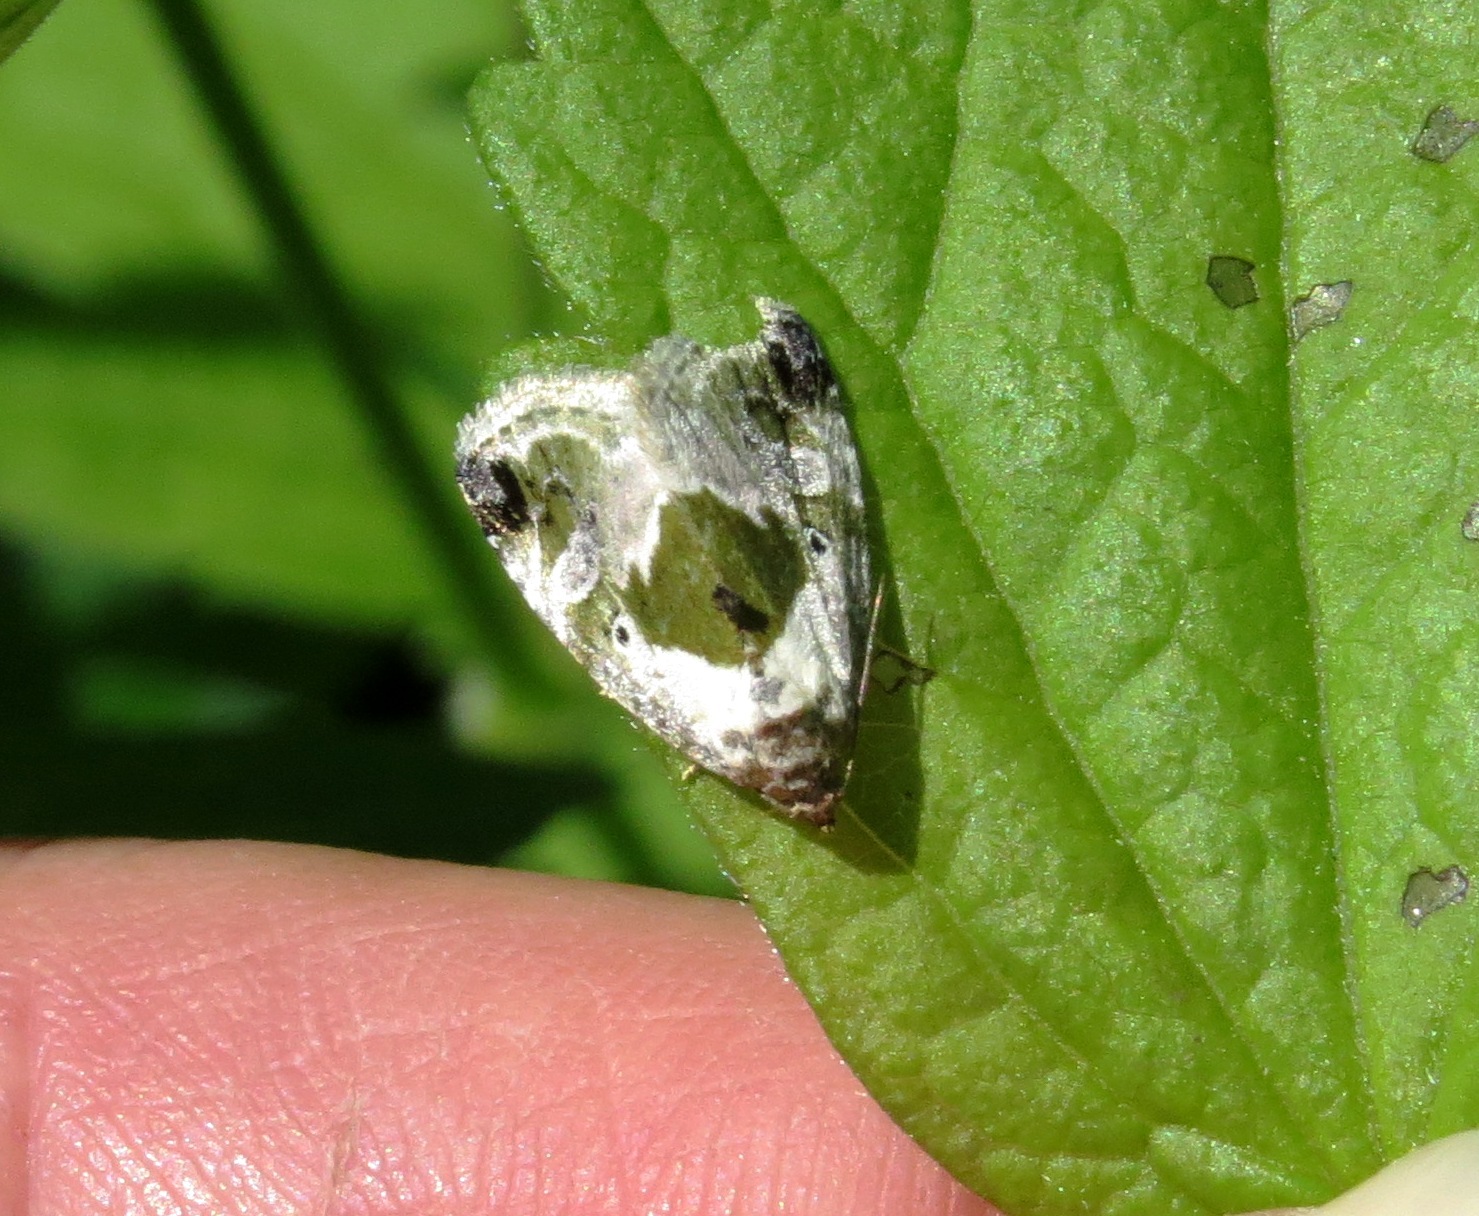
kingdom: Animalia
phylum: Arthropoda
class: Insecta
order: Lepidoptera
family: Noctuidae
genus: Maliattha
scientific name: Maliattha synochitis
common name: Black-dotted glyph
